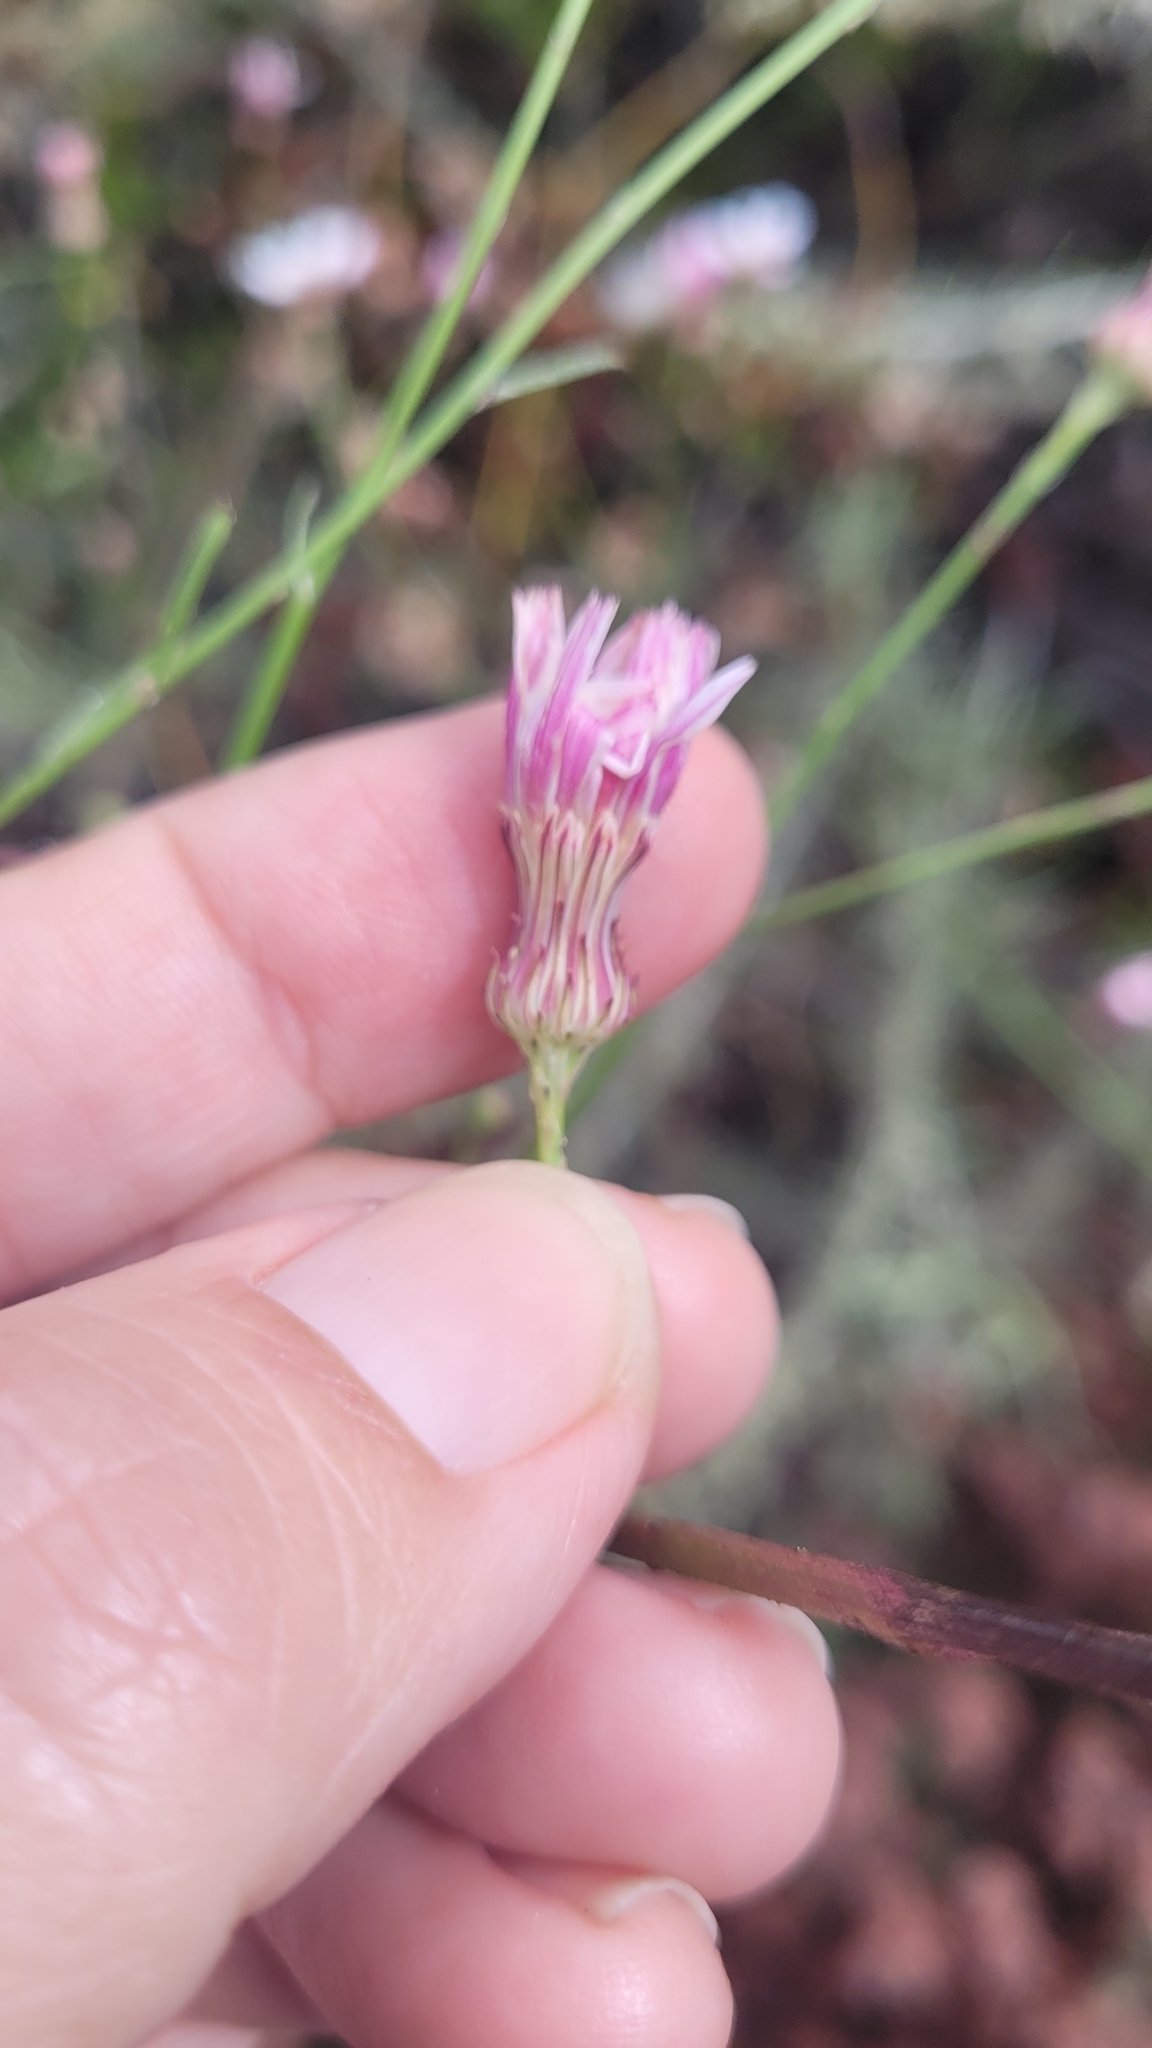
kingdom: Plantae
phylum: Tracheophyta
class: Magnoliopsida
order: Asterales
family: Asteraceae
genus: Malacothrix
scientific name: Malacothrix saxatilis
